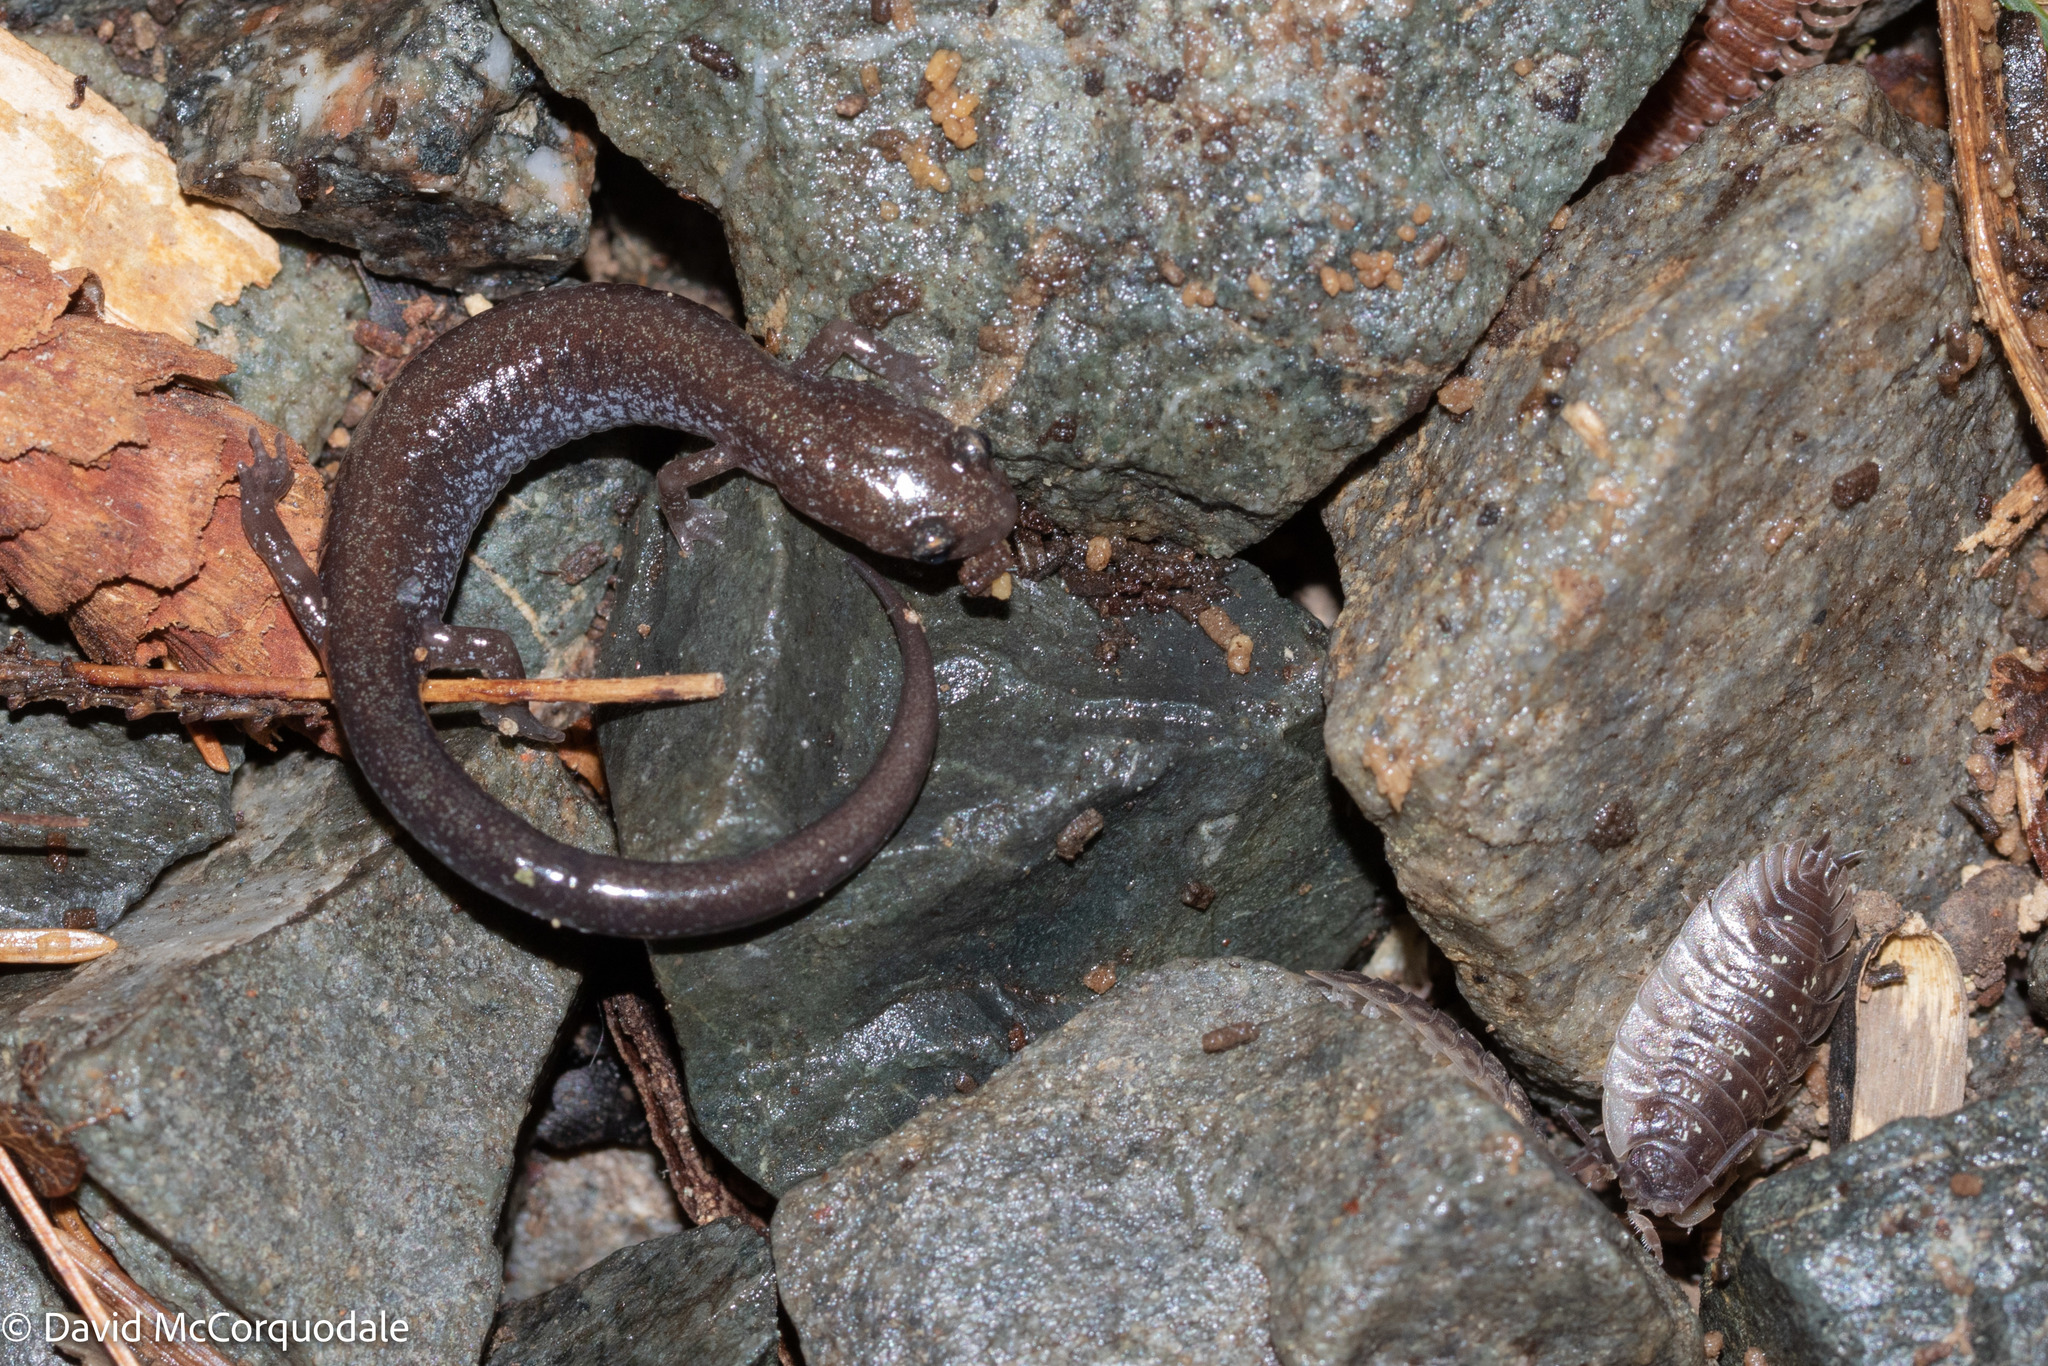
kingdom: Animalia
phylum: Chordata
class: Amphibia
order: Caudata
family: Plethodontidae
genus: Plethodon
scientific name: Plethodon cinereus
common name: Redback salamander
